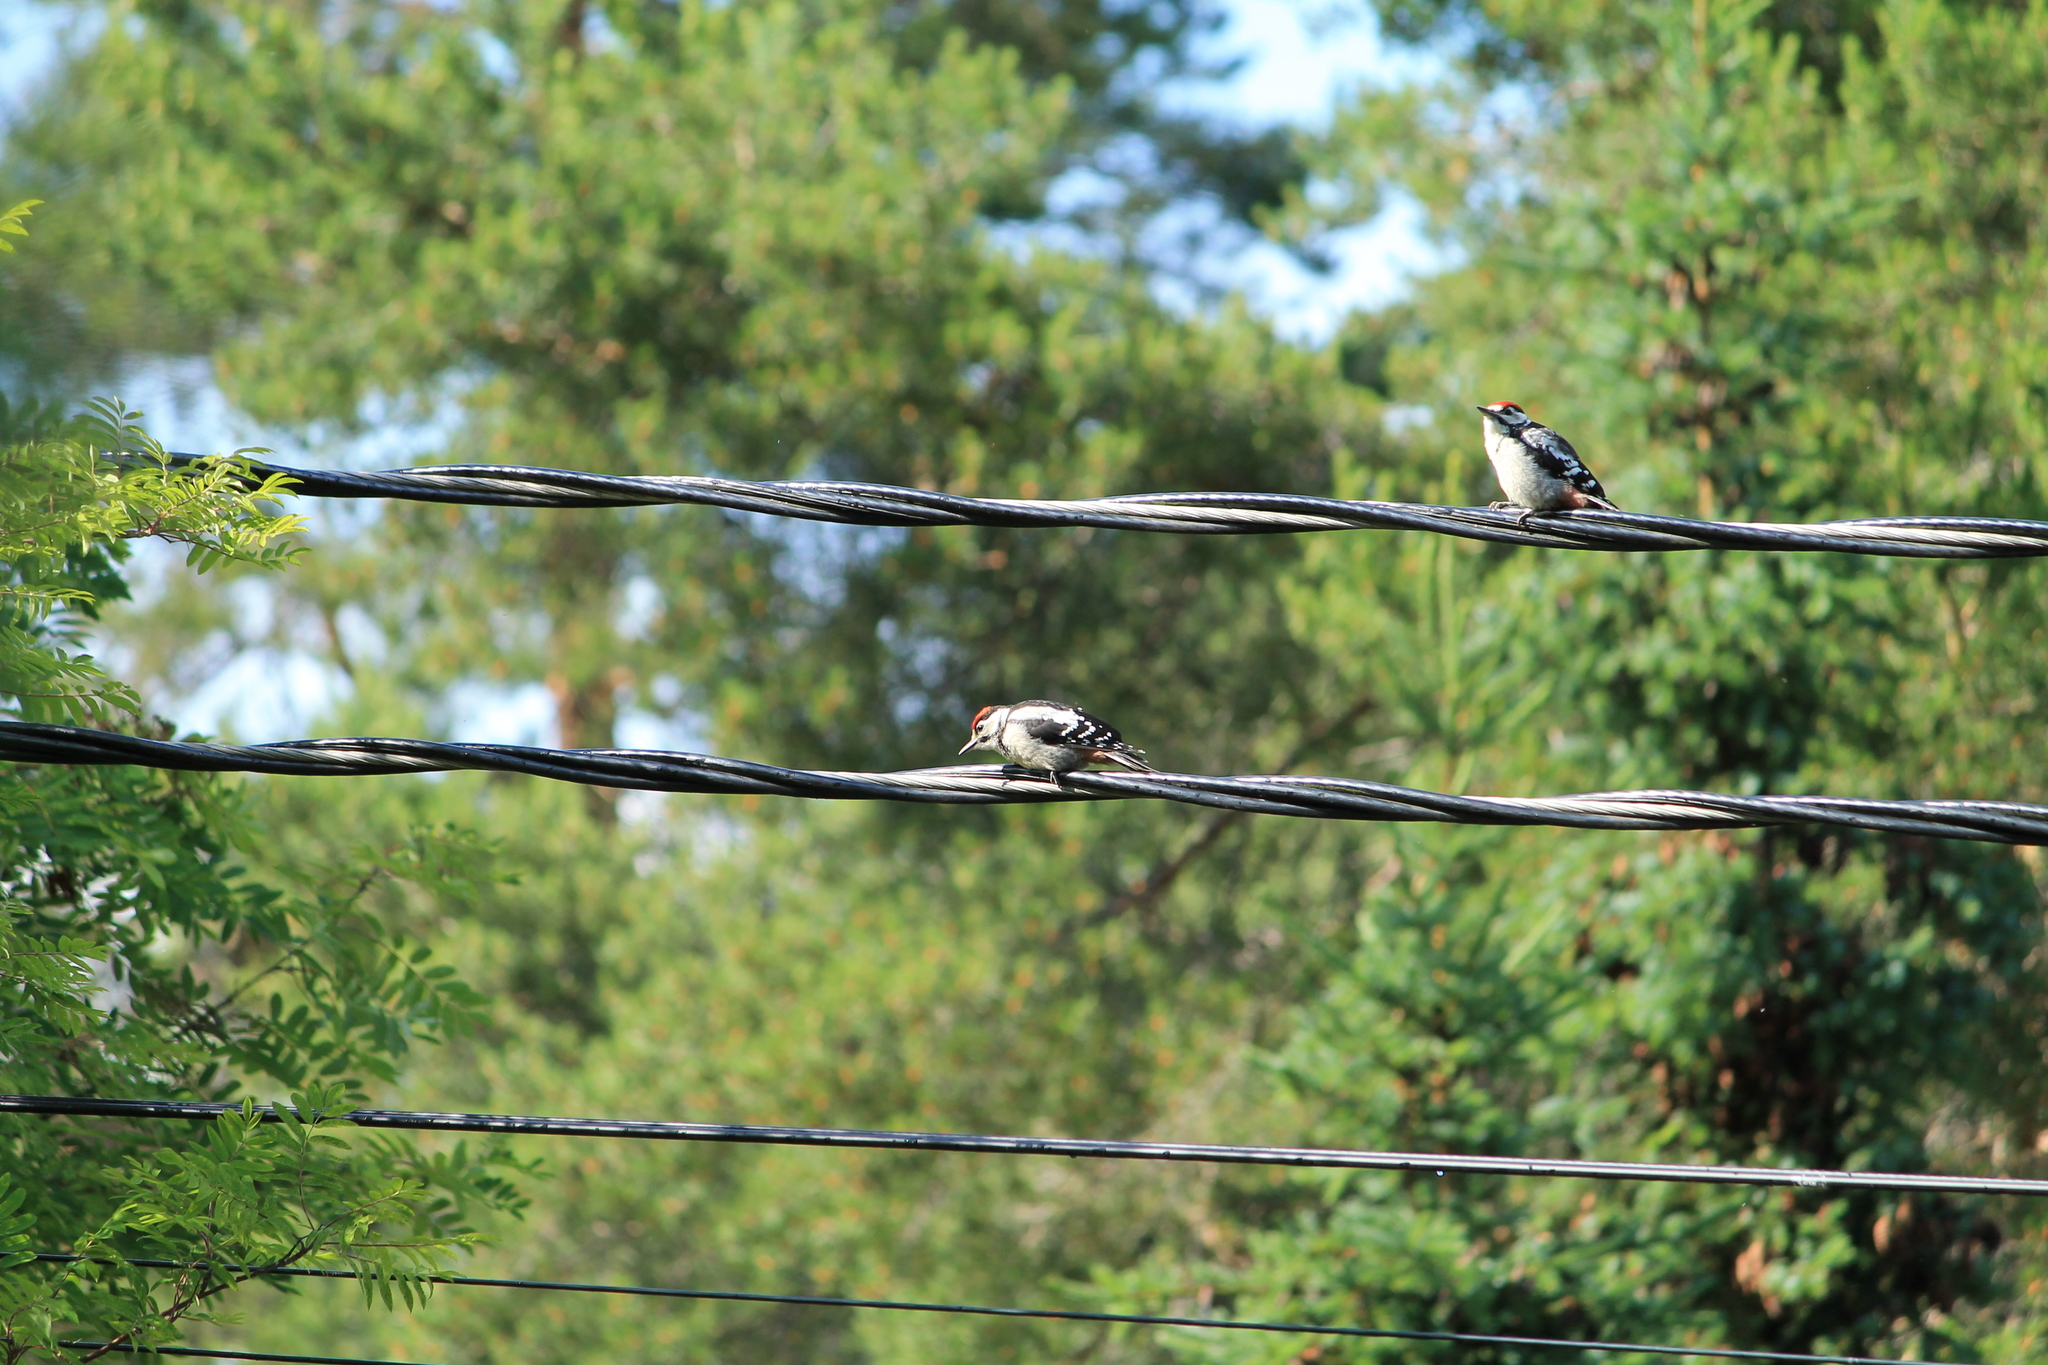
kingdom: Animalia
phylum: Chordata
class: Aves
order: Piciformes
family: Picidae
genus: Dendrocopos
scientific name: Dendrocopos major
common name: Great spotted woodpecker
